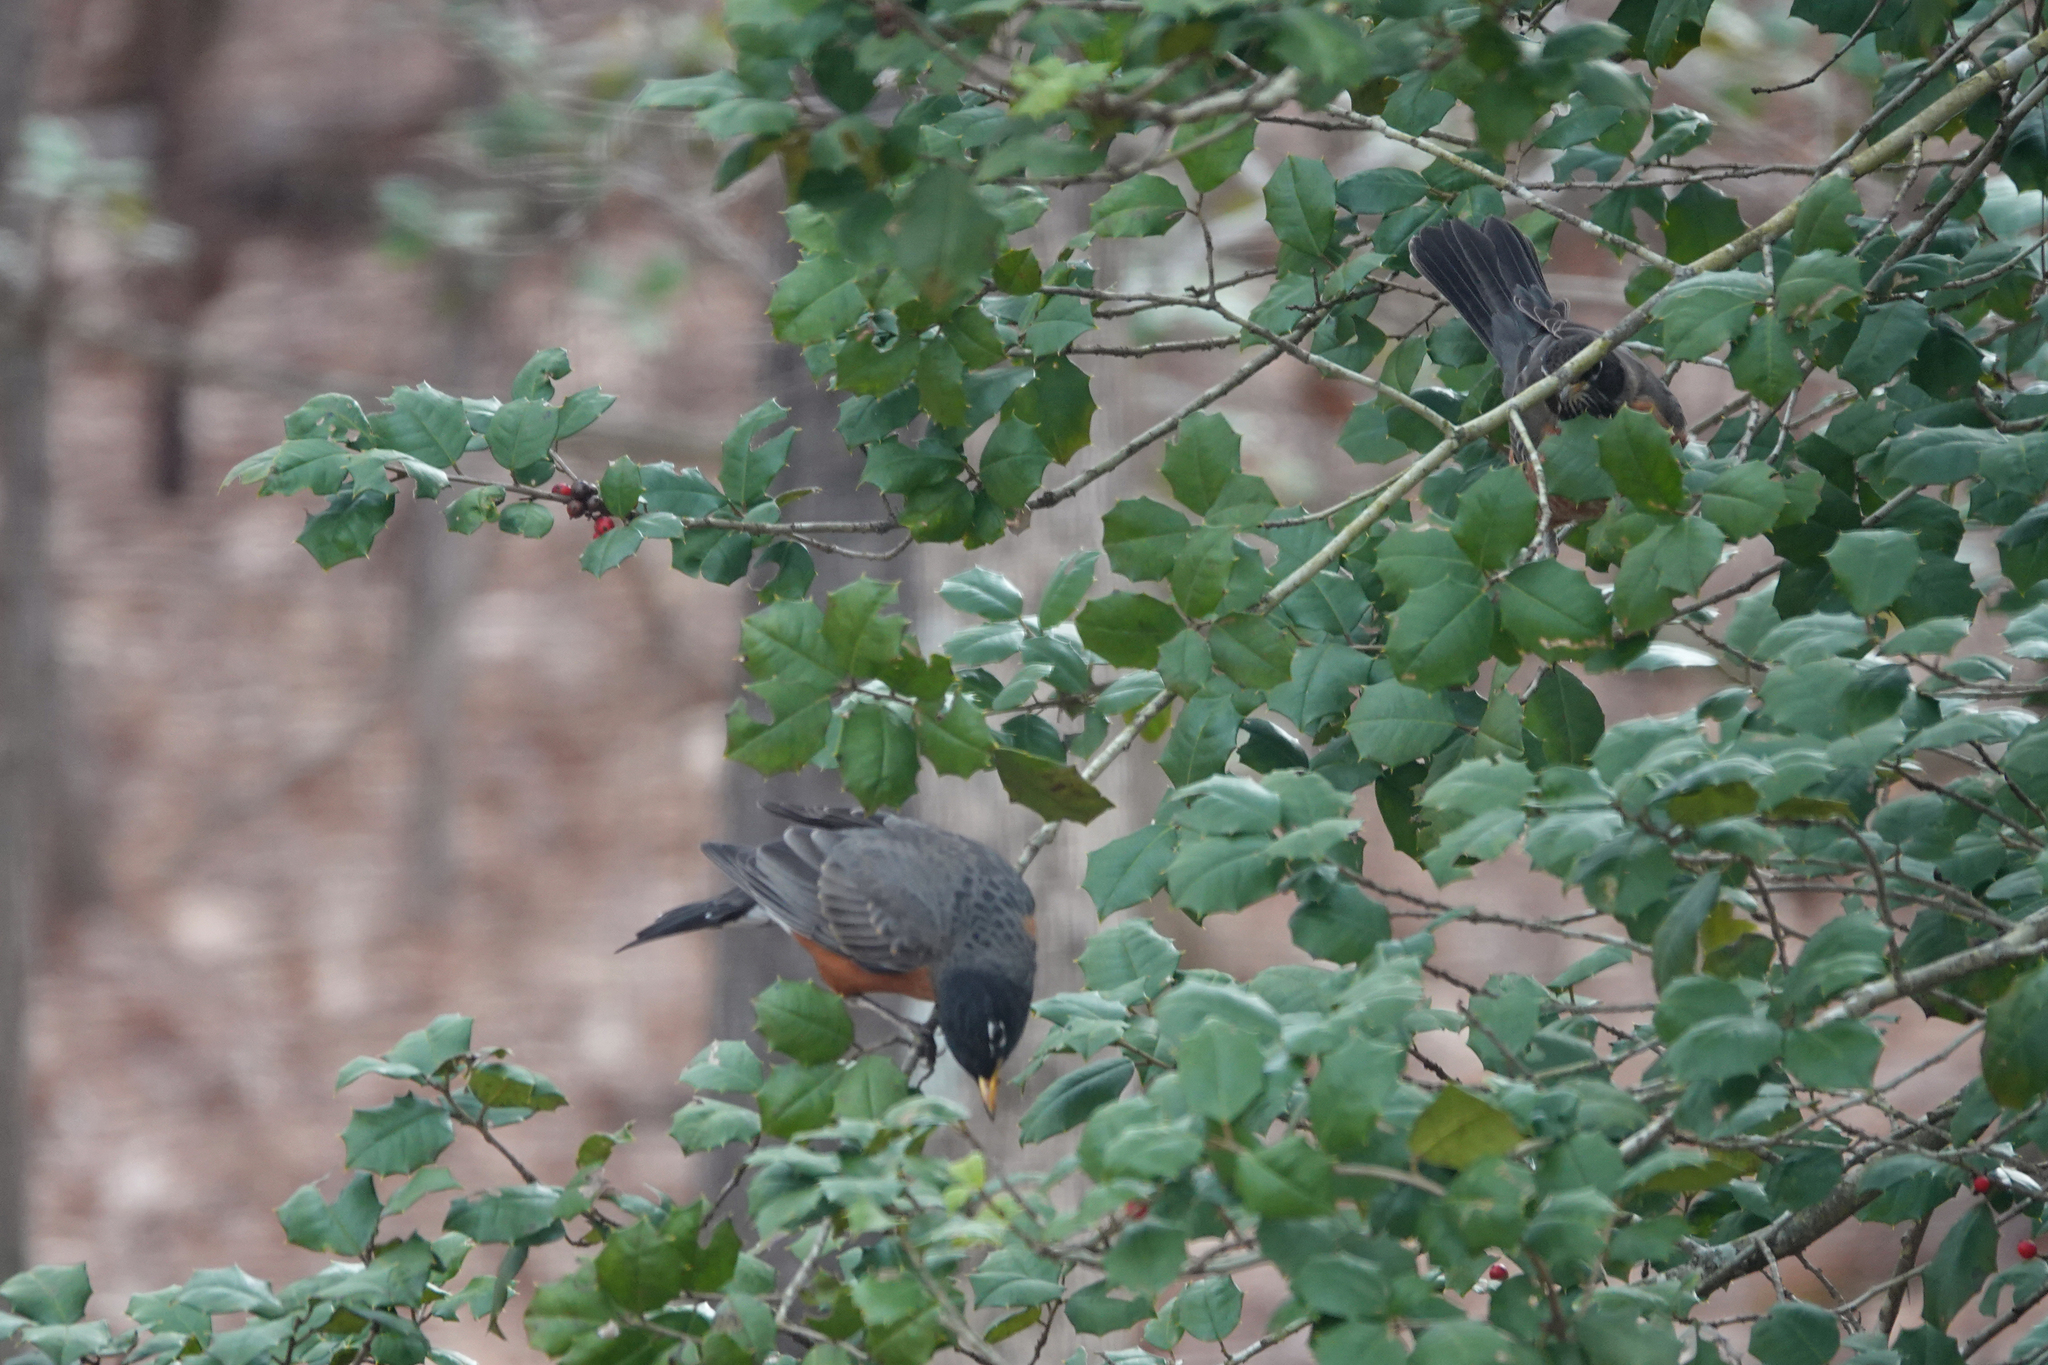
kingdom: Animalia
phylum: Chordata
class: Aves
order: Passeriformes
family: Turdidae
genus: Turdus
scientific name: Turdus migratorius
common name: American robin
